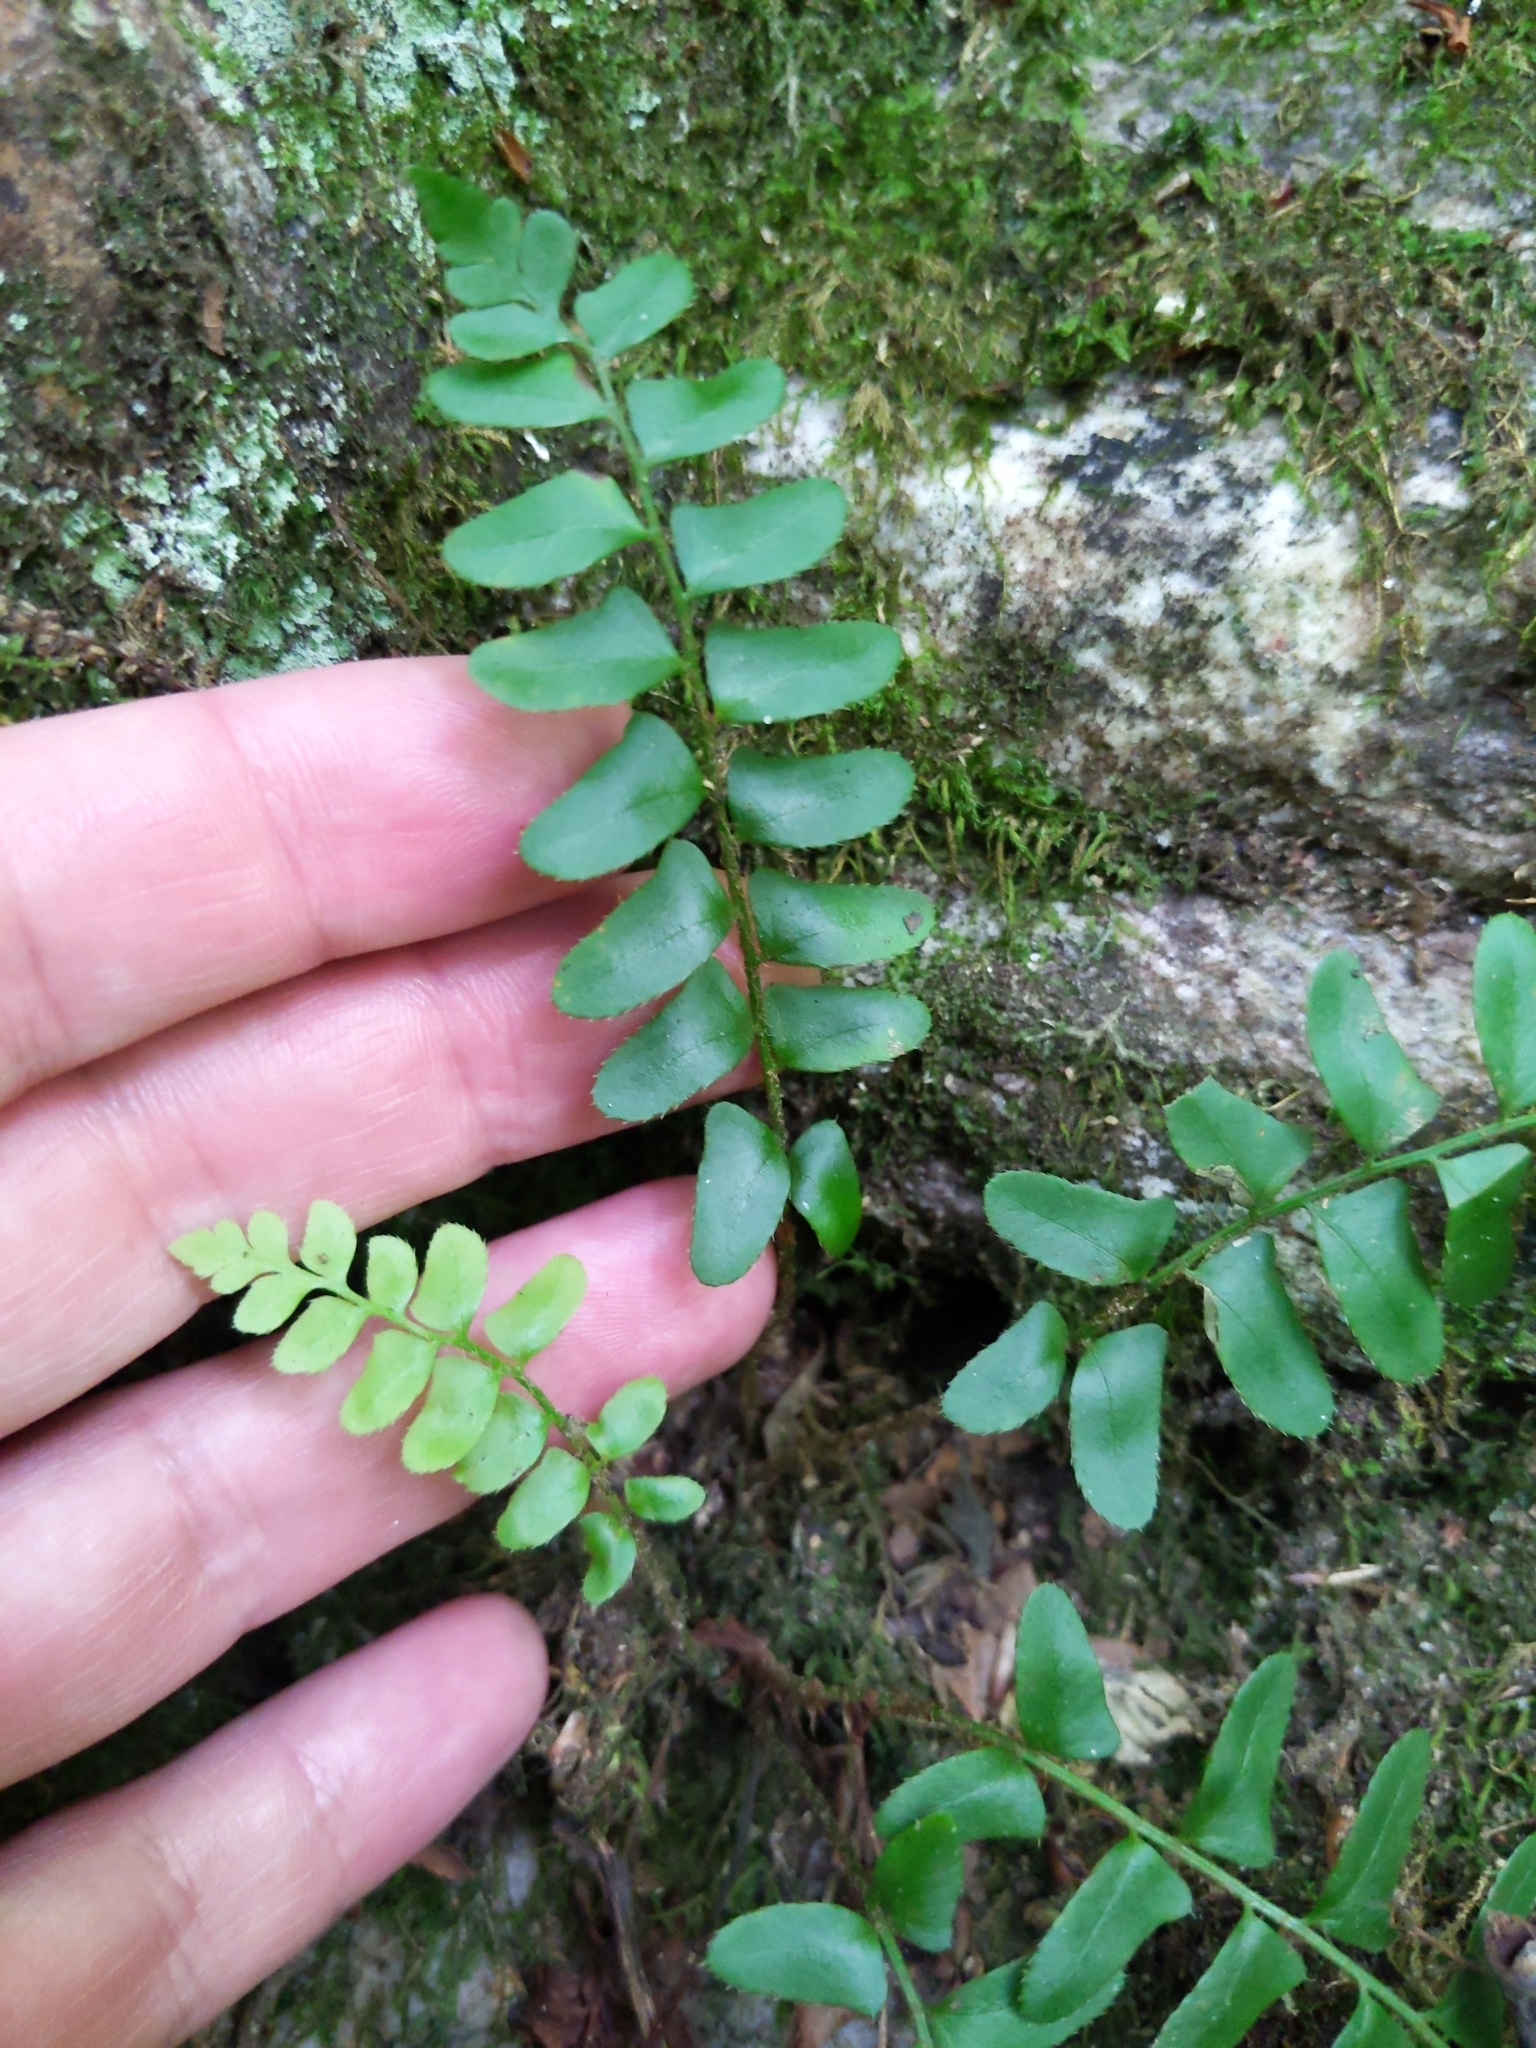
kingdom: Plantae
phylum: Tracheophyta
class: Polypodiopsida
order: Polypodiales
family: Dryopteridaceae
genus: Polystichum
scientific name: Polystichum acrostichoides
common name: Christmas fern
